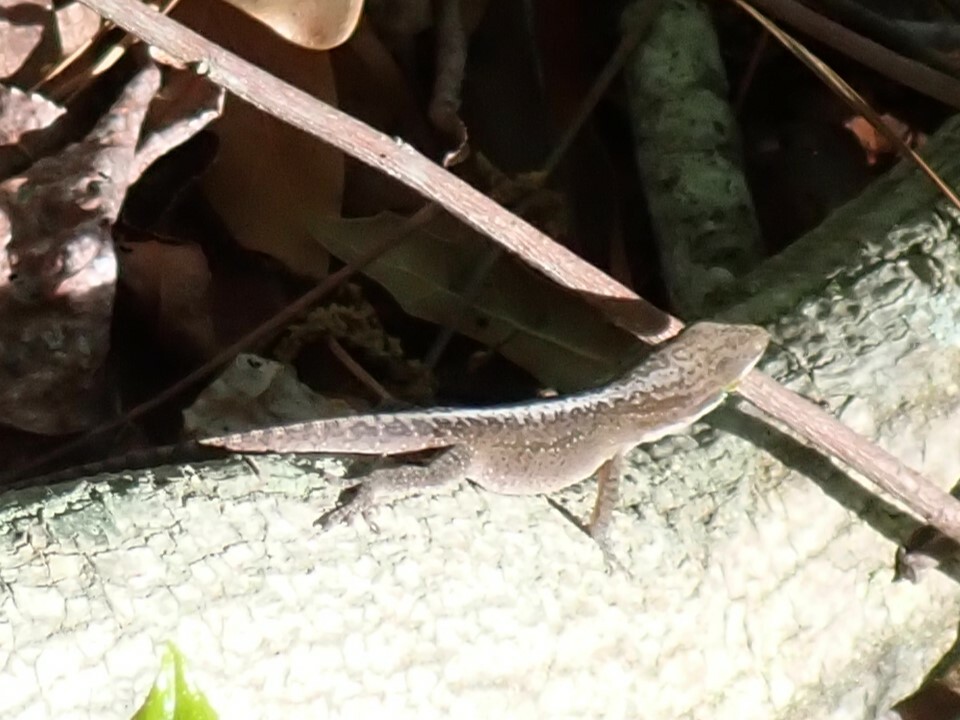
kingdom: Animalia
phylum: Chordata
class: Squamata
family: Dactyloidae
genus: Anolis
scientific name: Anolis carolinensis
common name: Green anole
